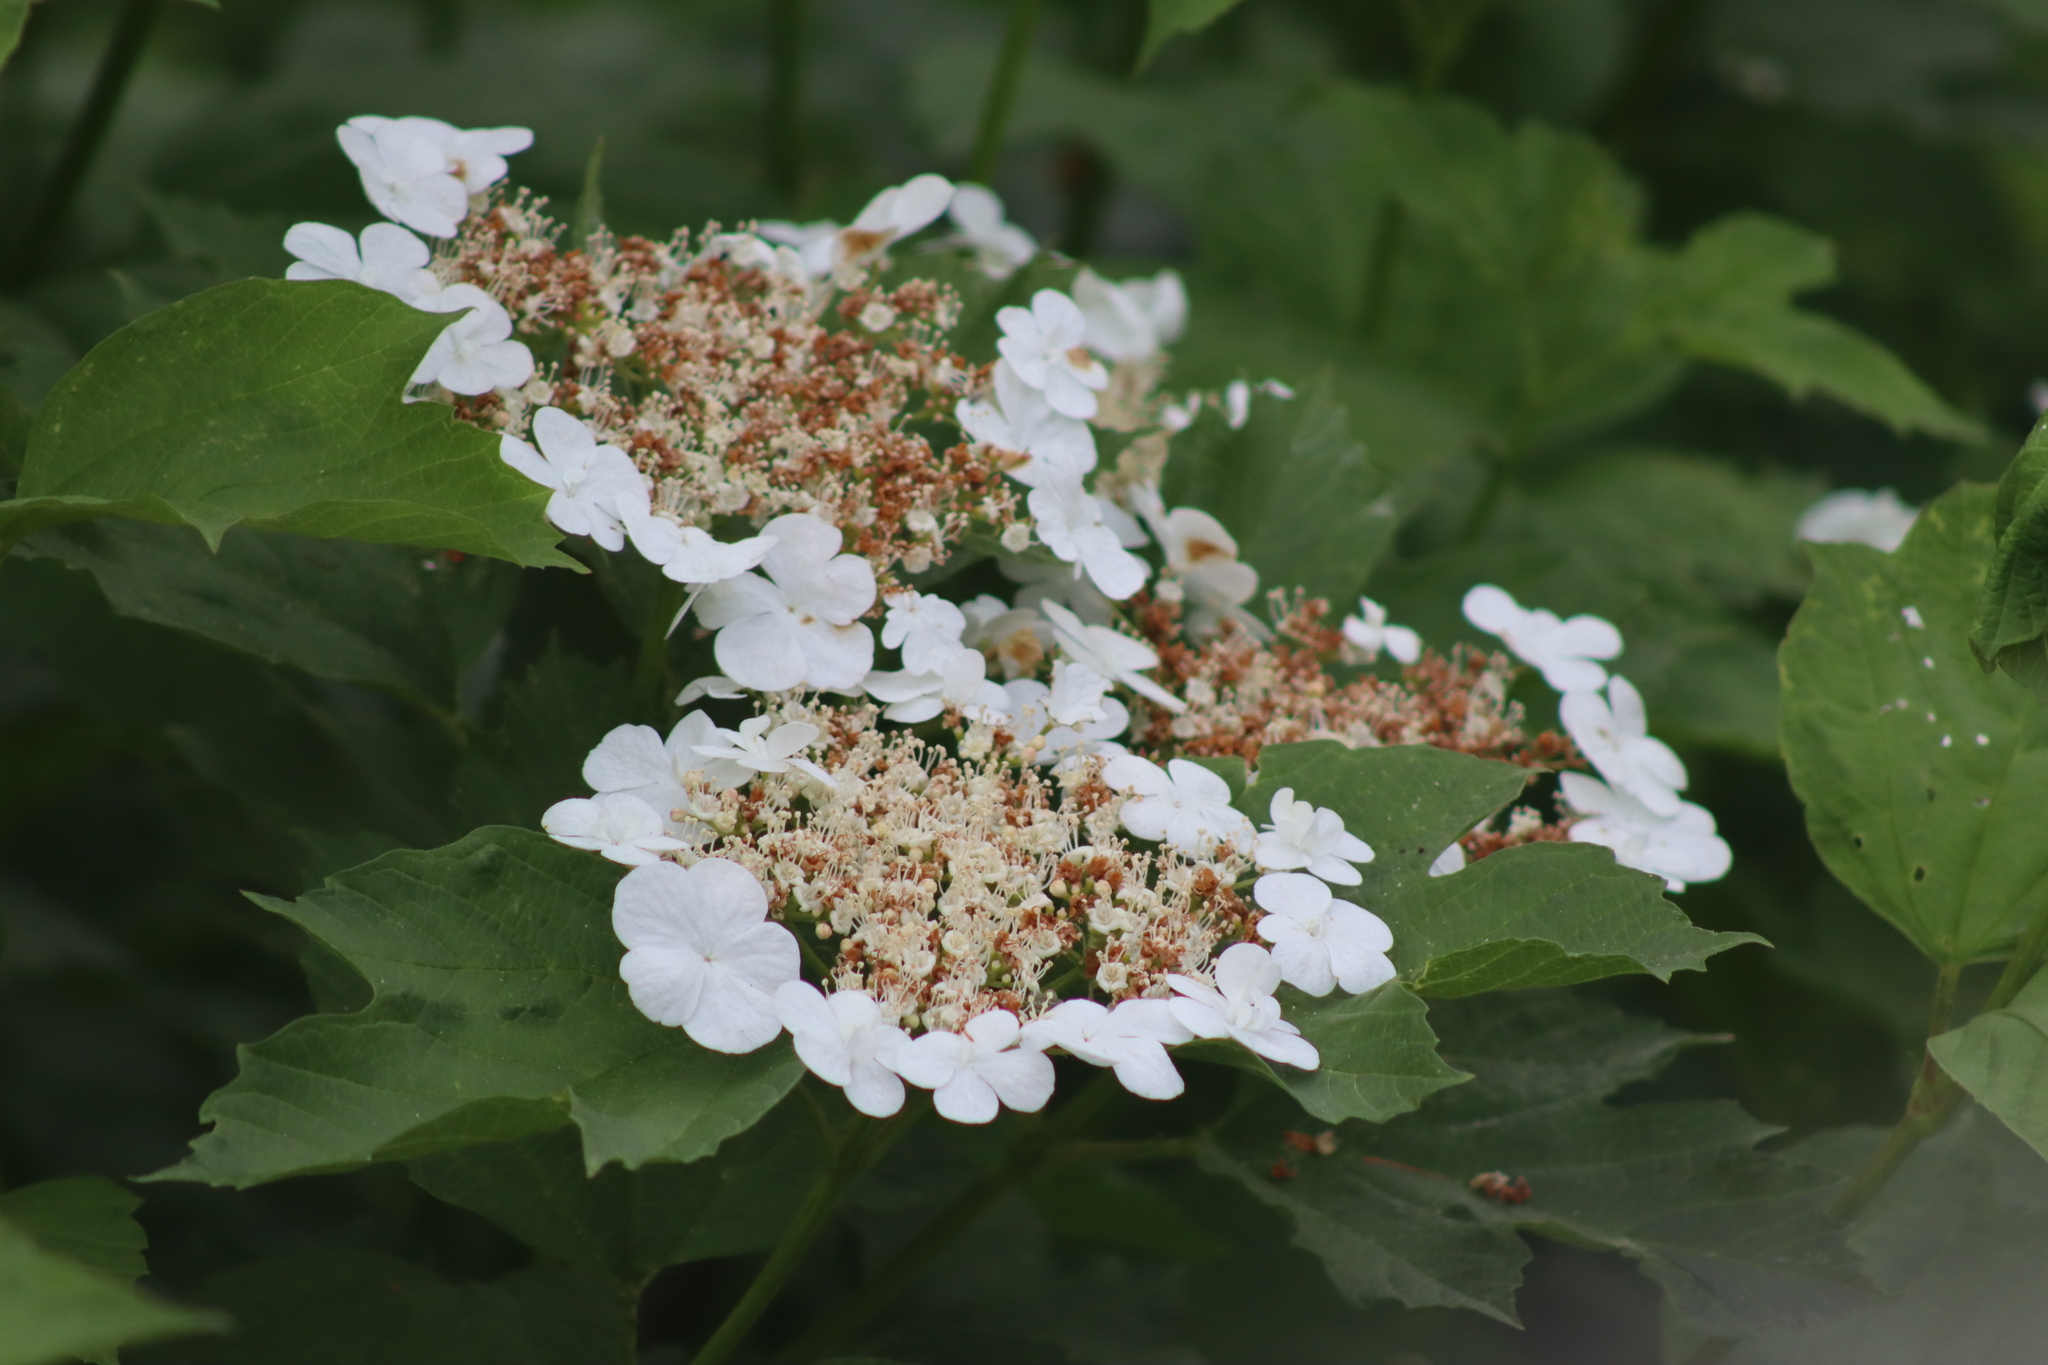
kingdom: Plantae
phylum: Tracheophyta
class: Magnoliopsida
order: Dipsacales
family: Viburnaceae
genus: Viburnum
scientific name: Viburnum opulus
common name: Guelder-rose
